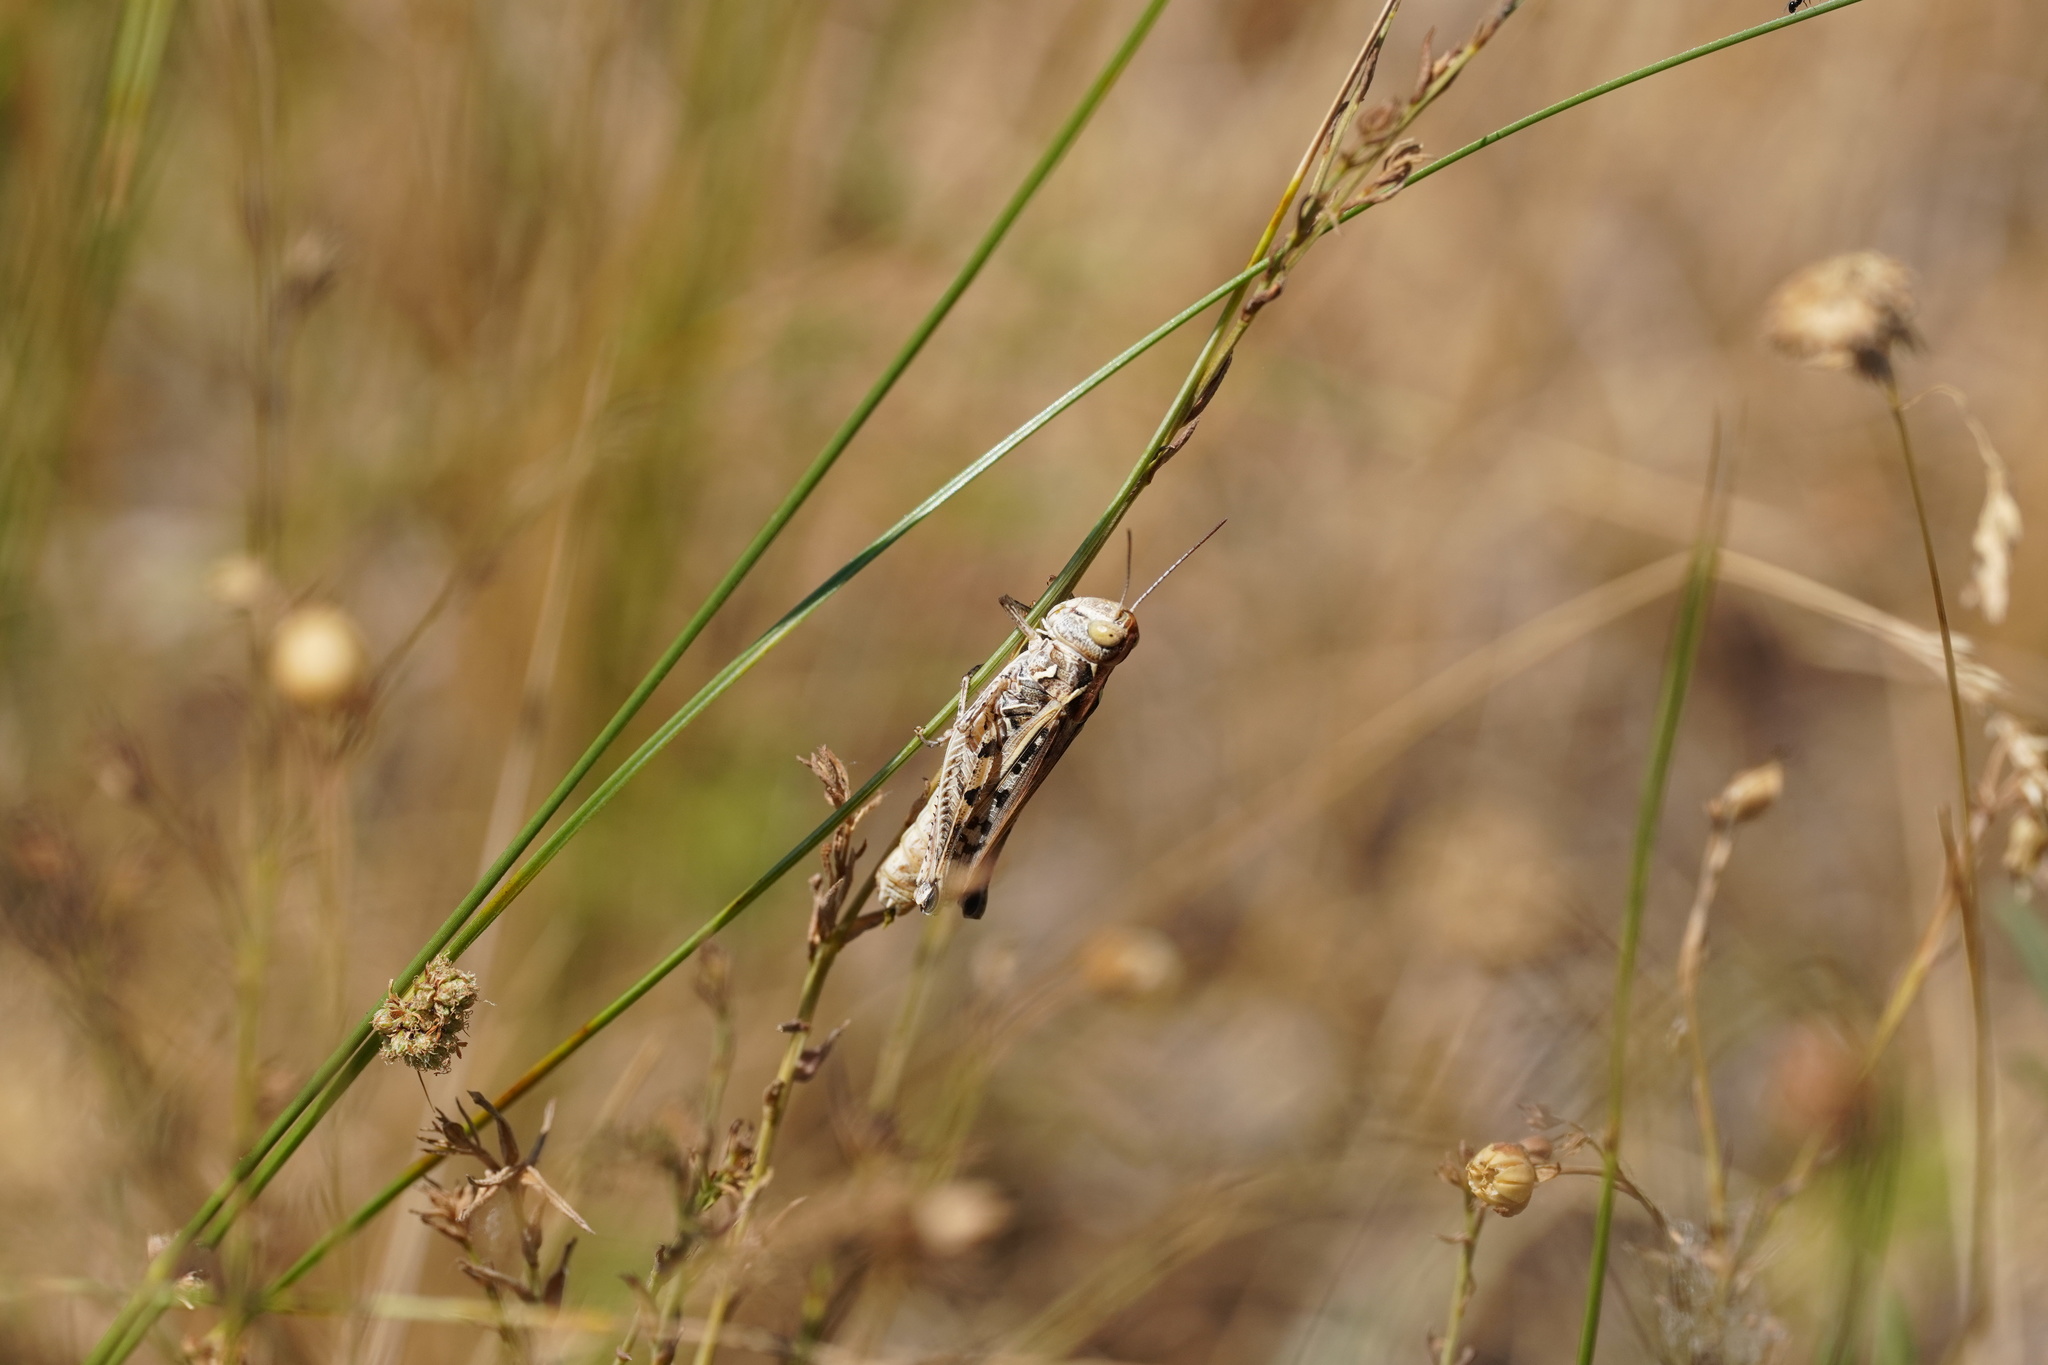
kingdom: Animalia
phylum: Arthropoda
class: Insecta
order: Orthoptera
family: Acrididae
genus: Dociostaurus
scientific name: Dociostaurus brevicollis
